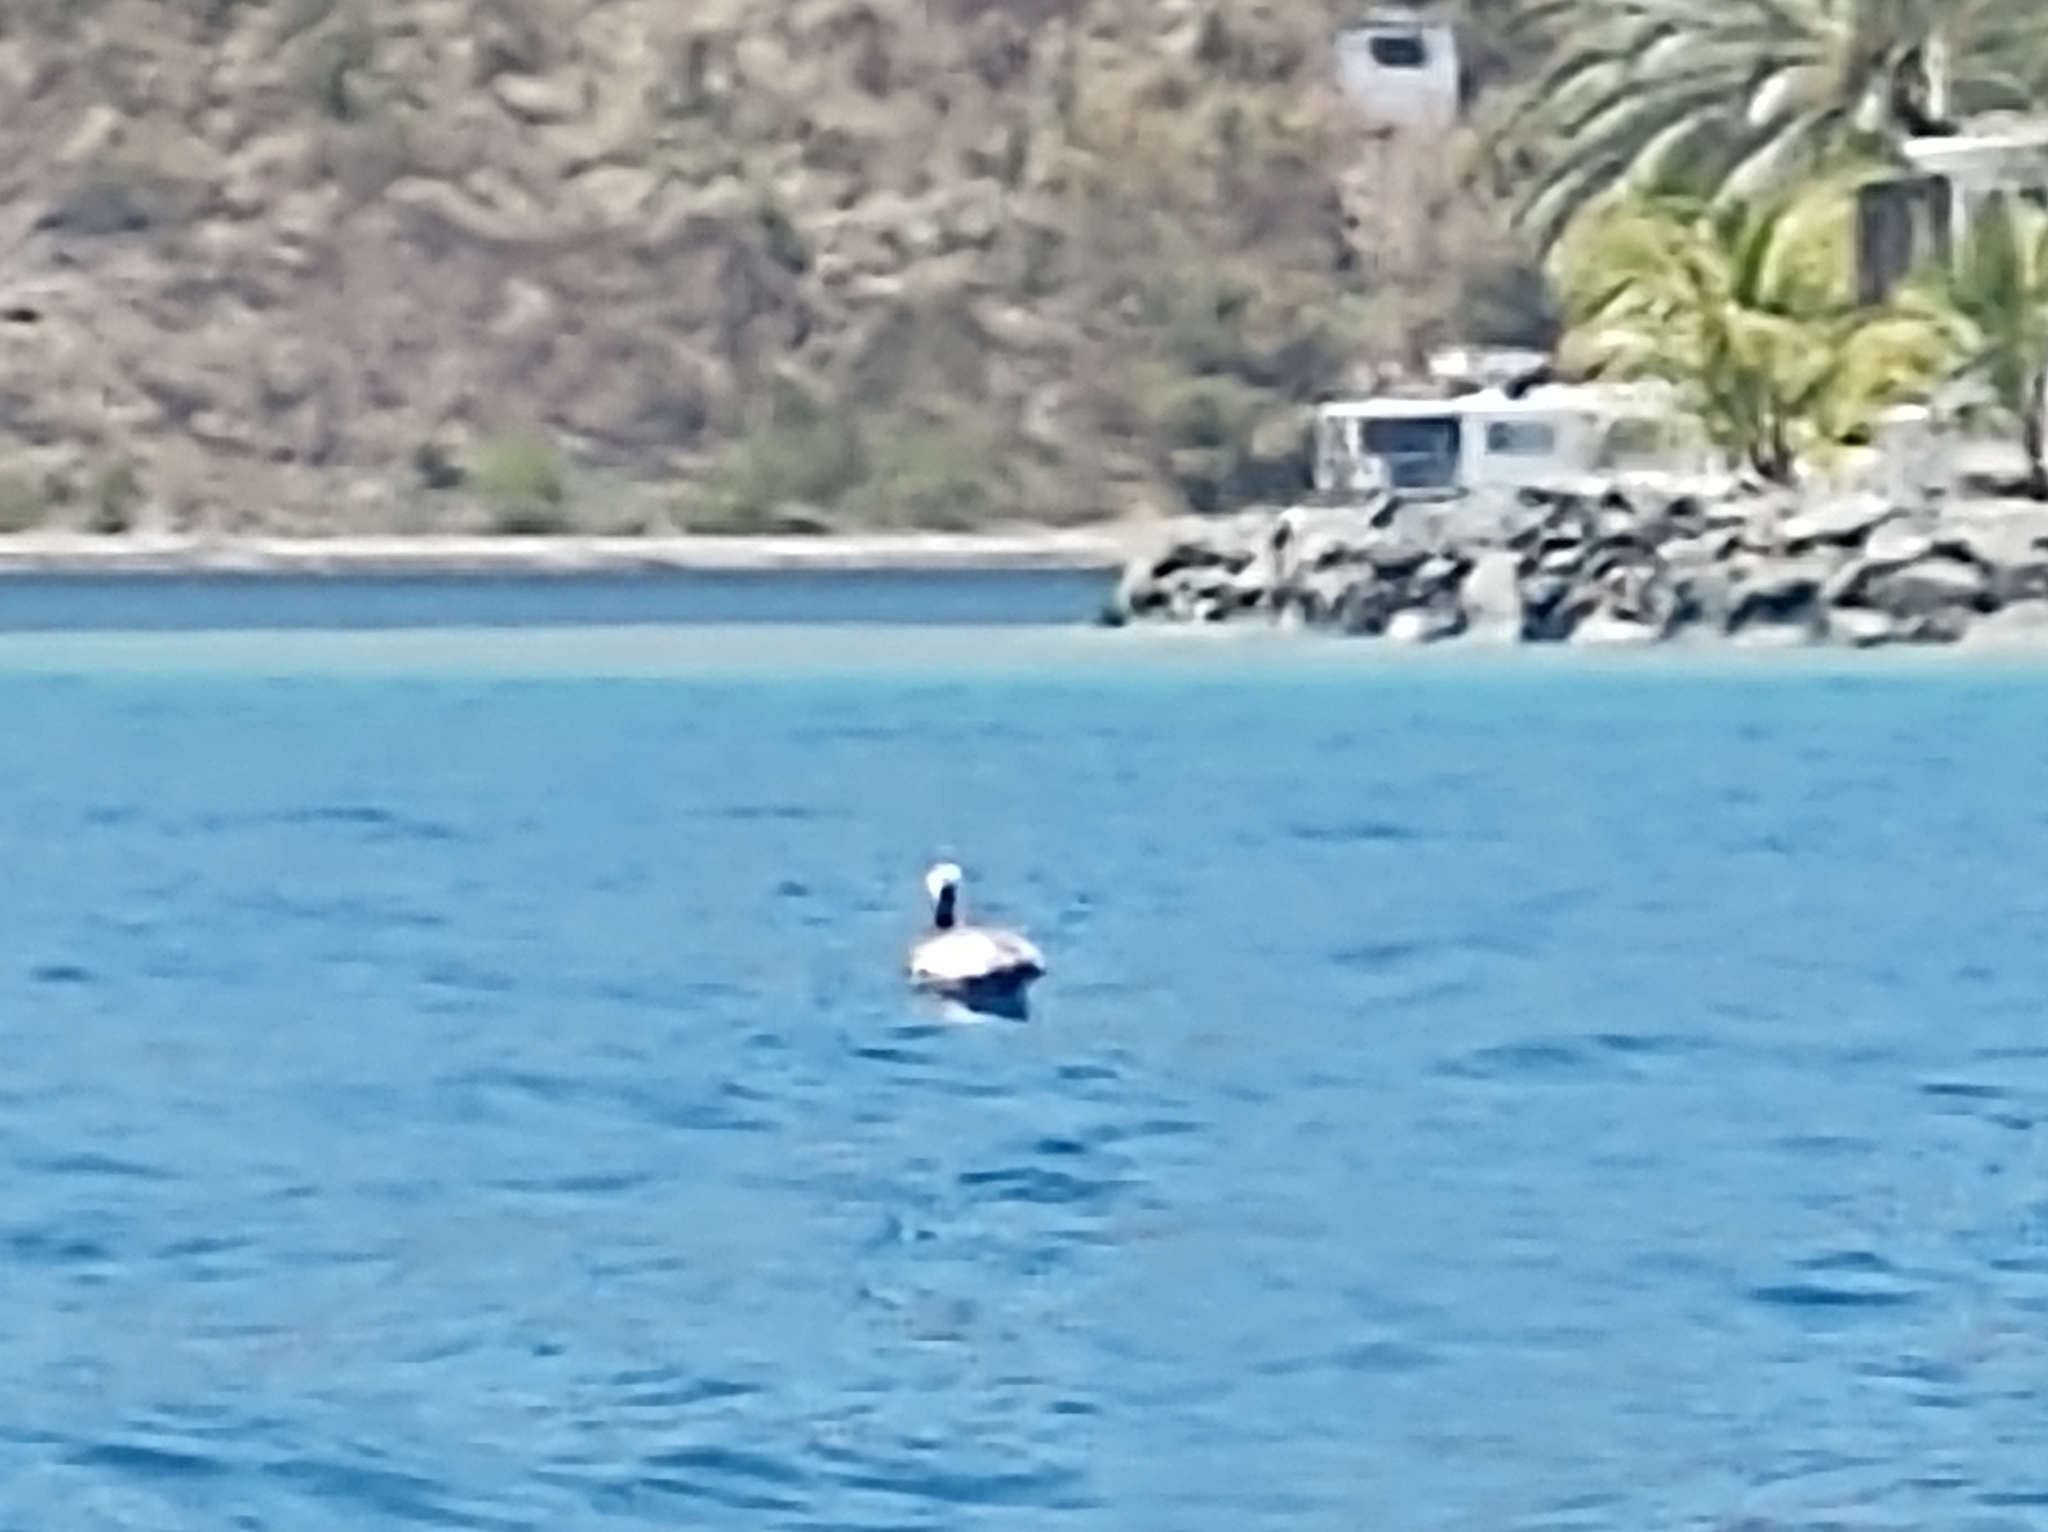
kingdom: Animalia
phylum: Chordata
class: Aves
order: Pelecaniformes
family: Pelecanidae
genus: Pelecanus
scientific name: Pelecanus occidentalis
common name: Brown pelican
